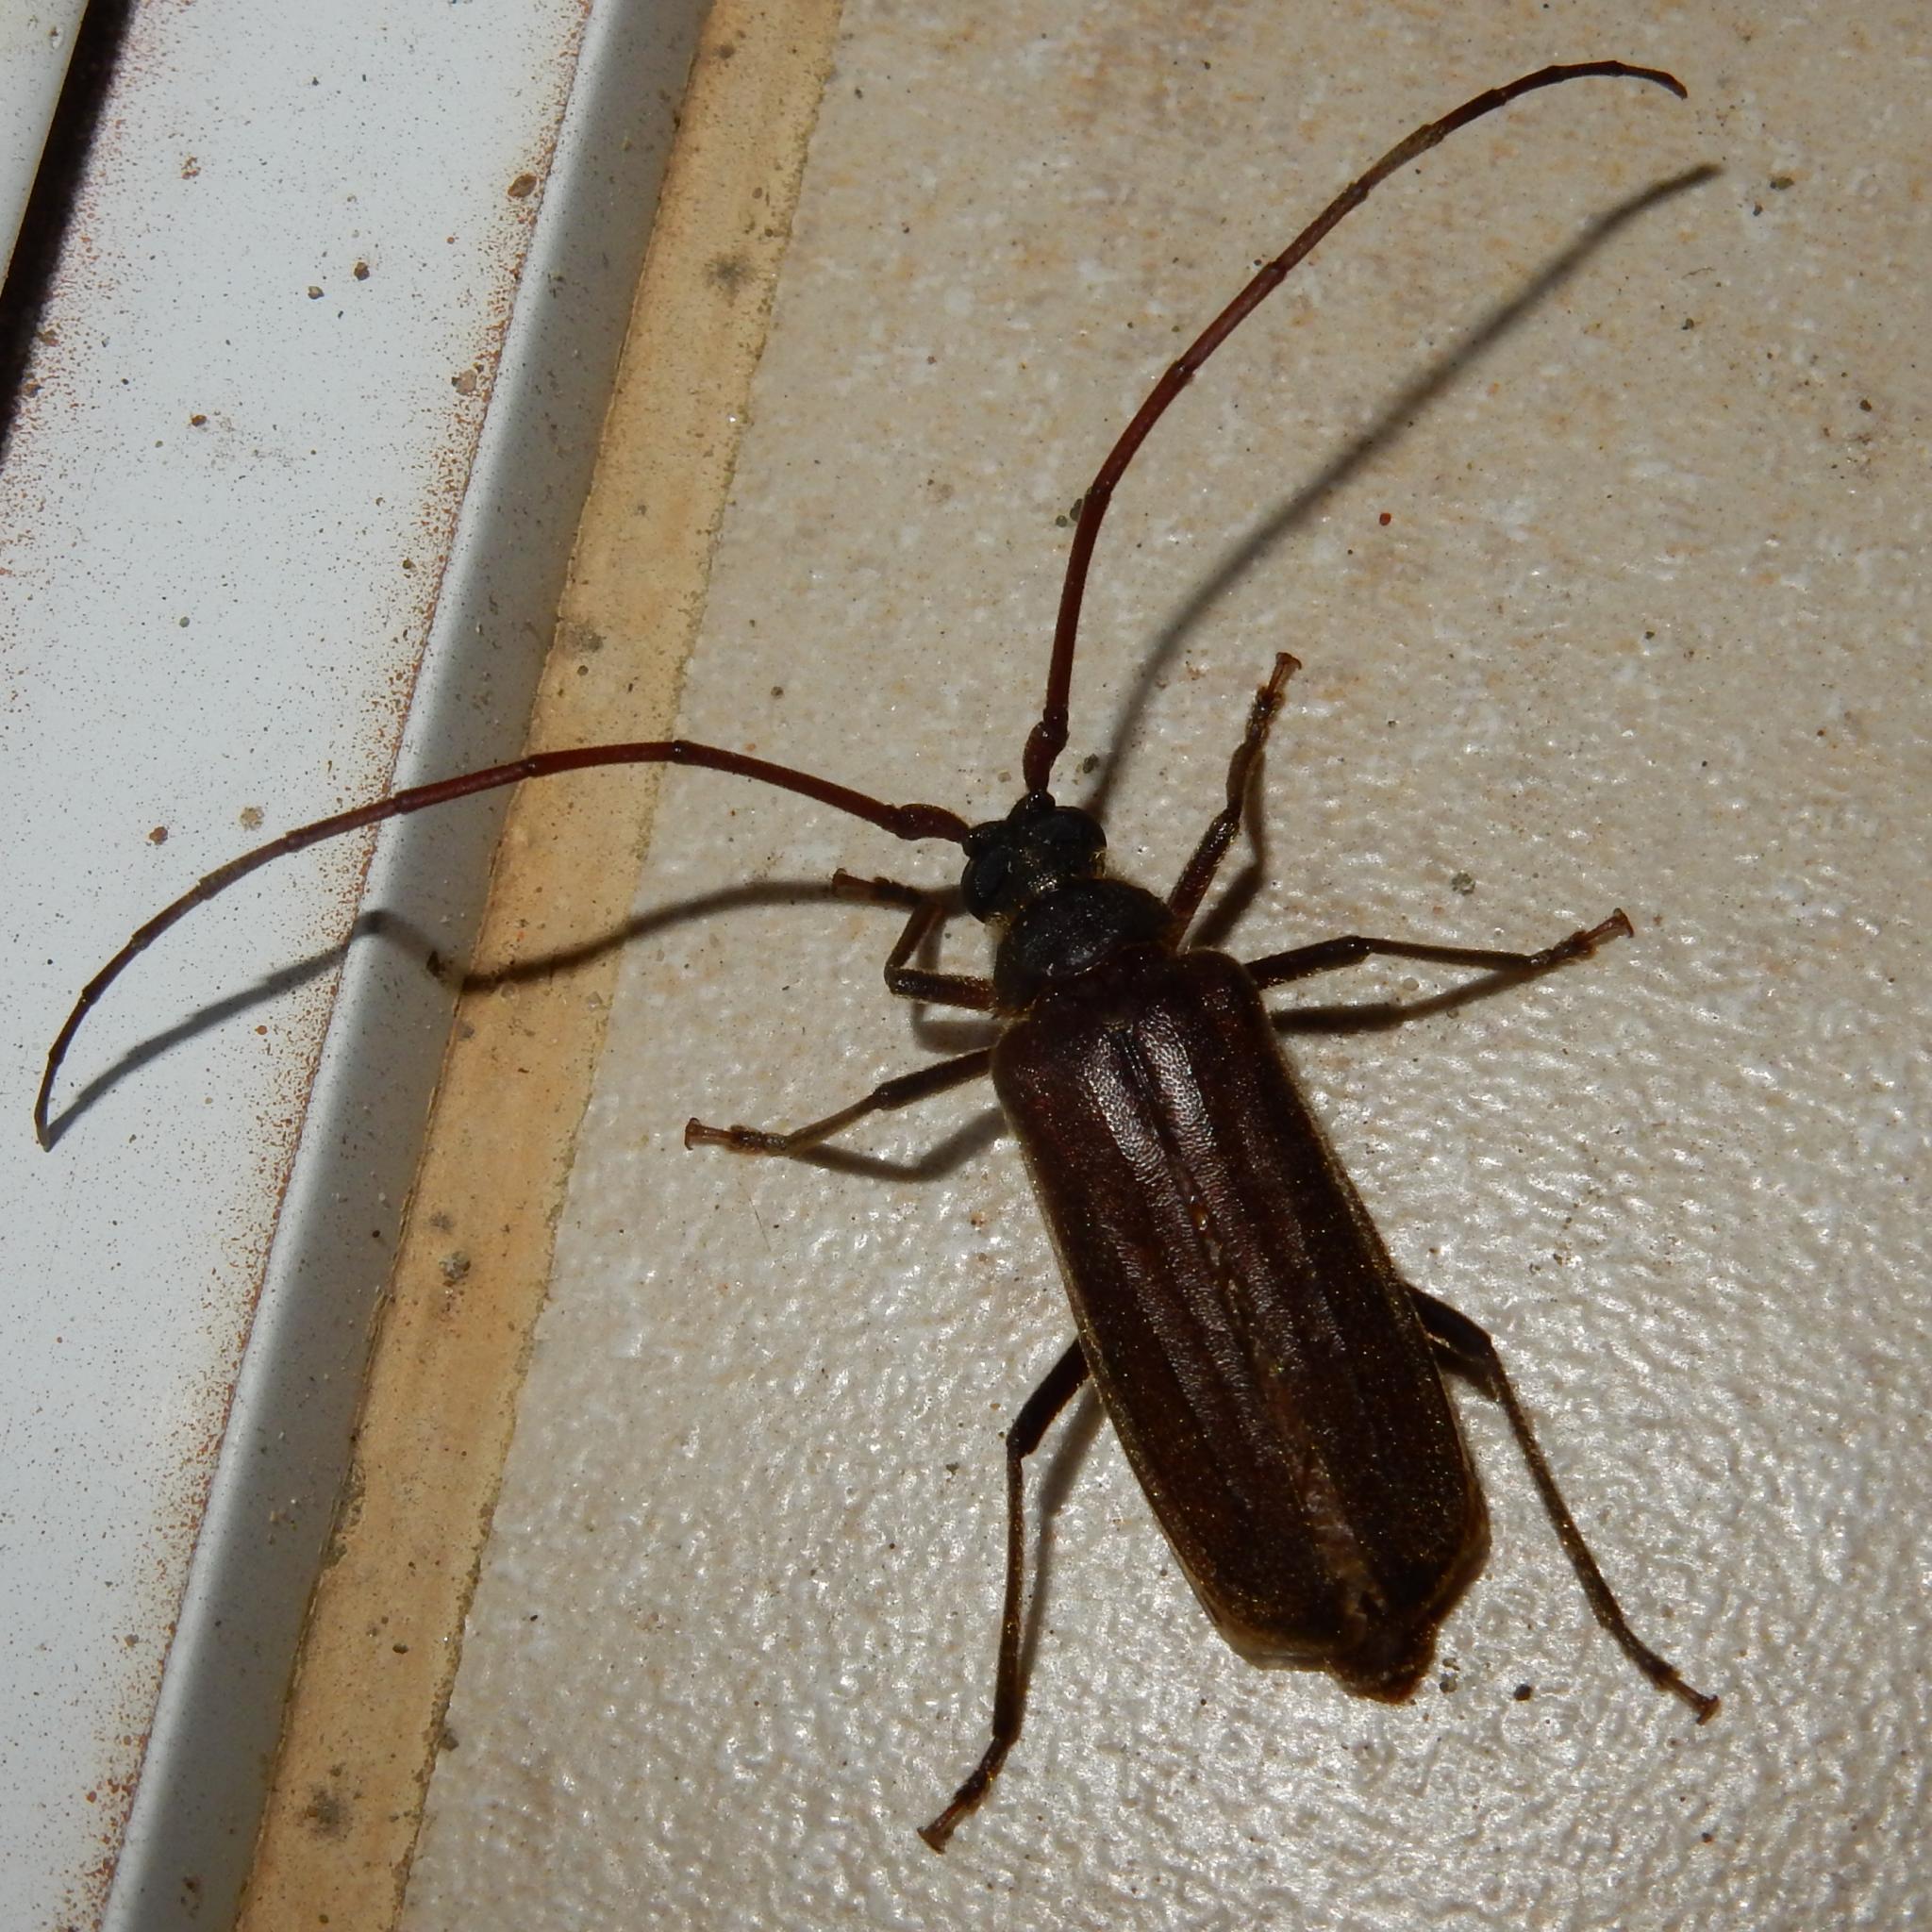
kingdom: Animalia
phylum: Arthropoda
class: Insecta
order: Coleoptera
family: Cerambycidae
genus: Oceanomegopis
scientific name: Oceanomegopis caledonica
